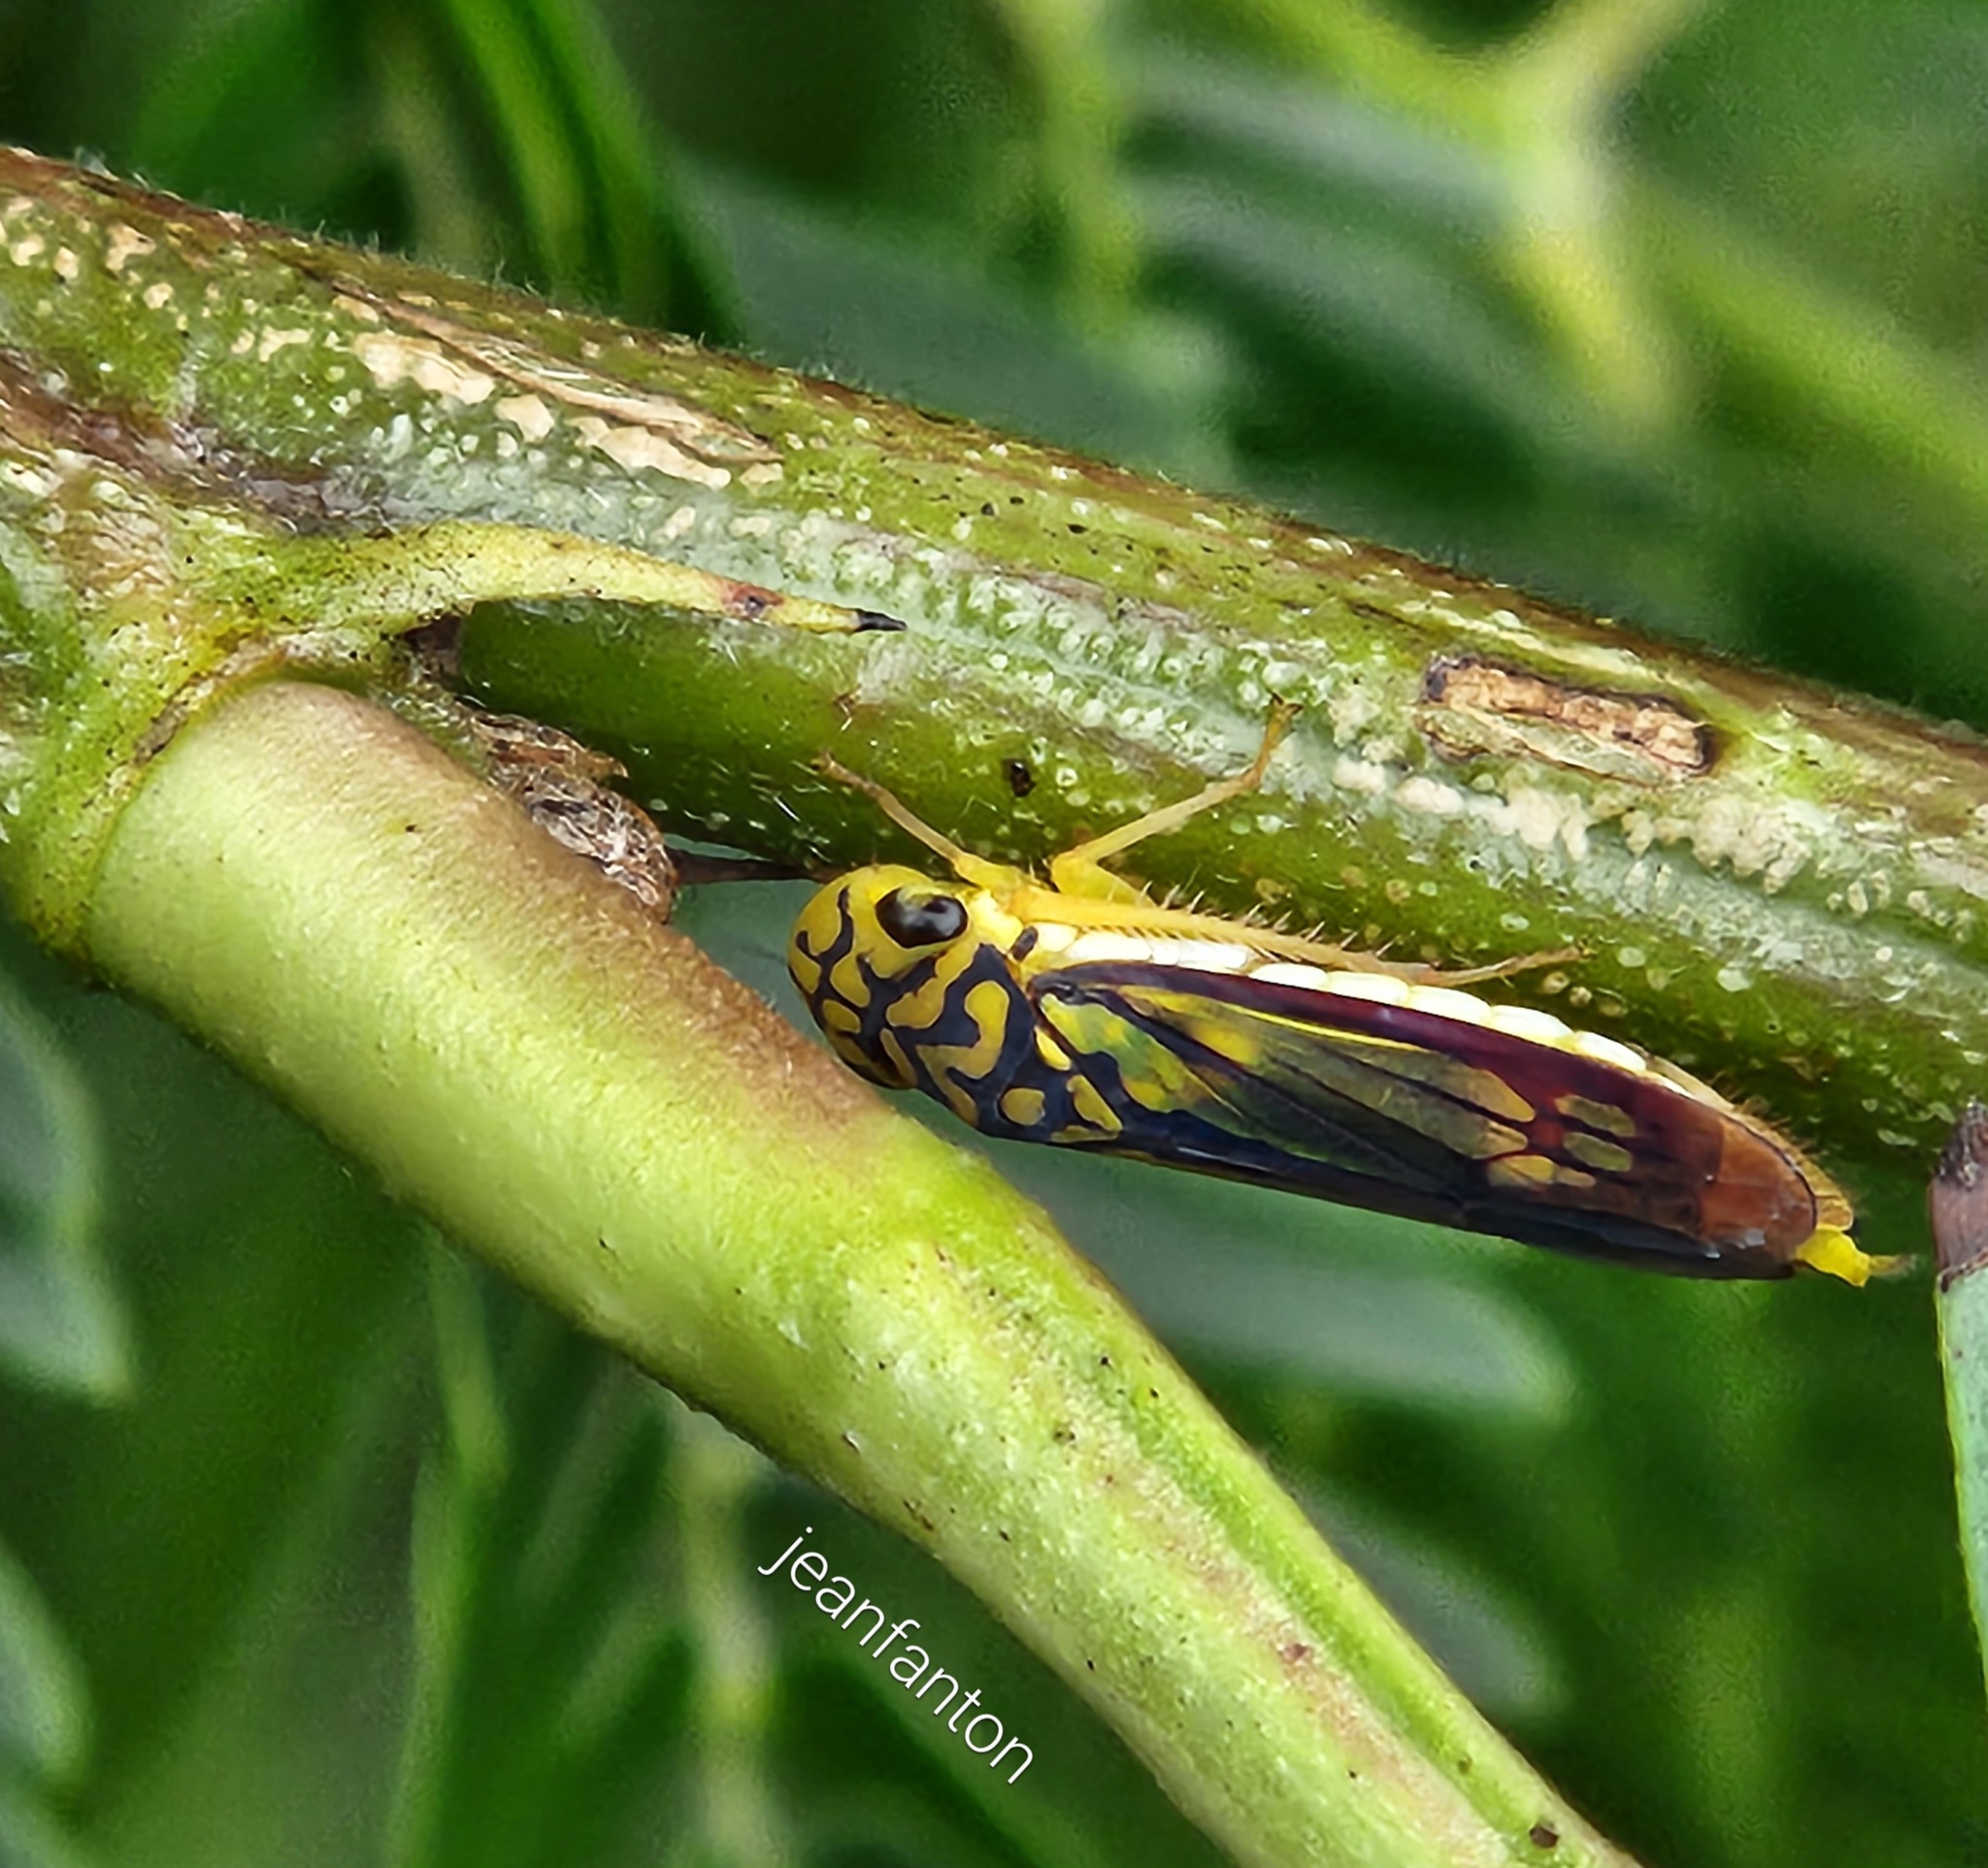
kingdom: Animalia
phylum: Arthropoda
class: Insecta
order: Hemiptera
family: Cicadellidae
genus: Dilobopterus
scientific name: Dilobopterus costalimai
